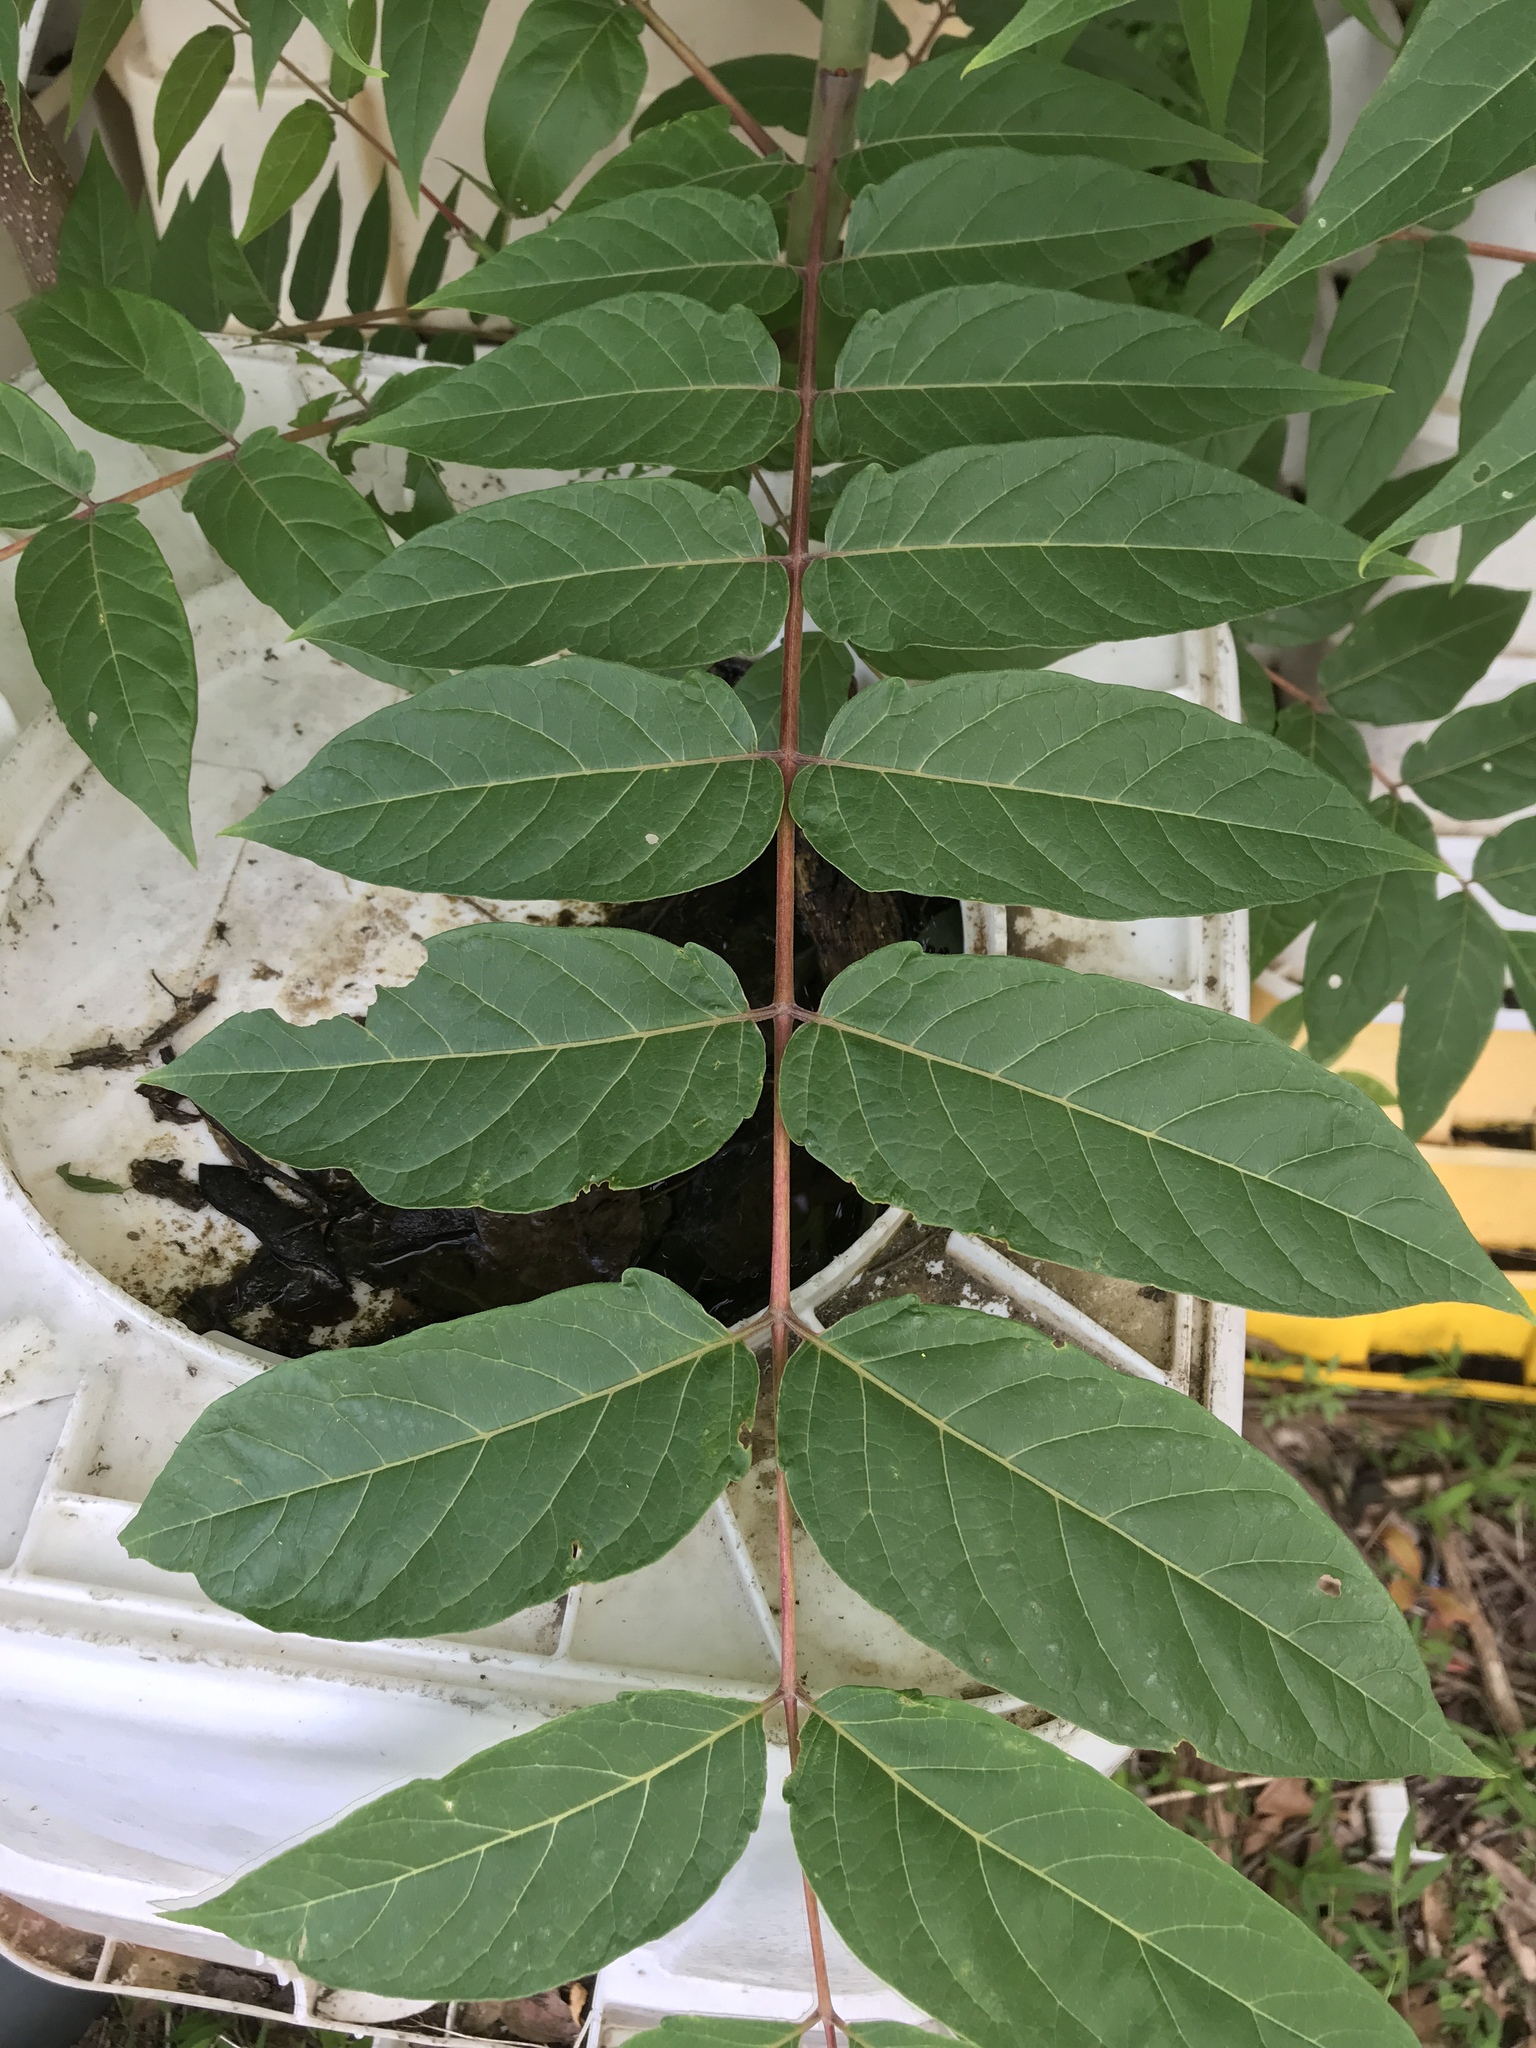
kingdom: Plantae
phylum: Tracheophyta
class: Magnoliopsida
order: Sapindales
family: Simaroubaceae
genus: Ailanthus
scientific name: Ailanthus altissima
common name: Tree-of-heaven
